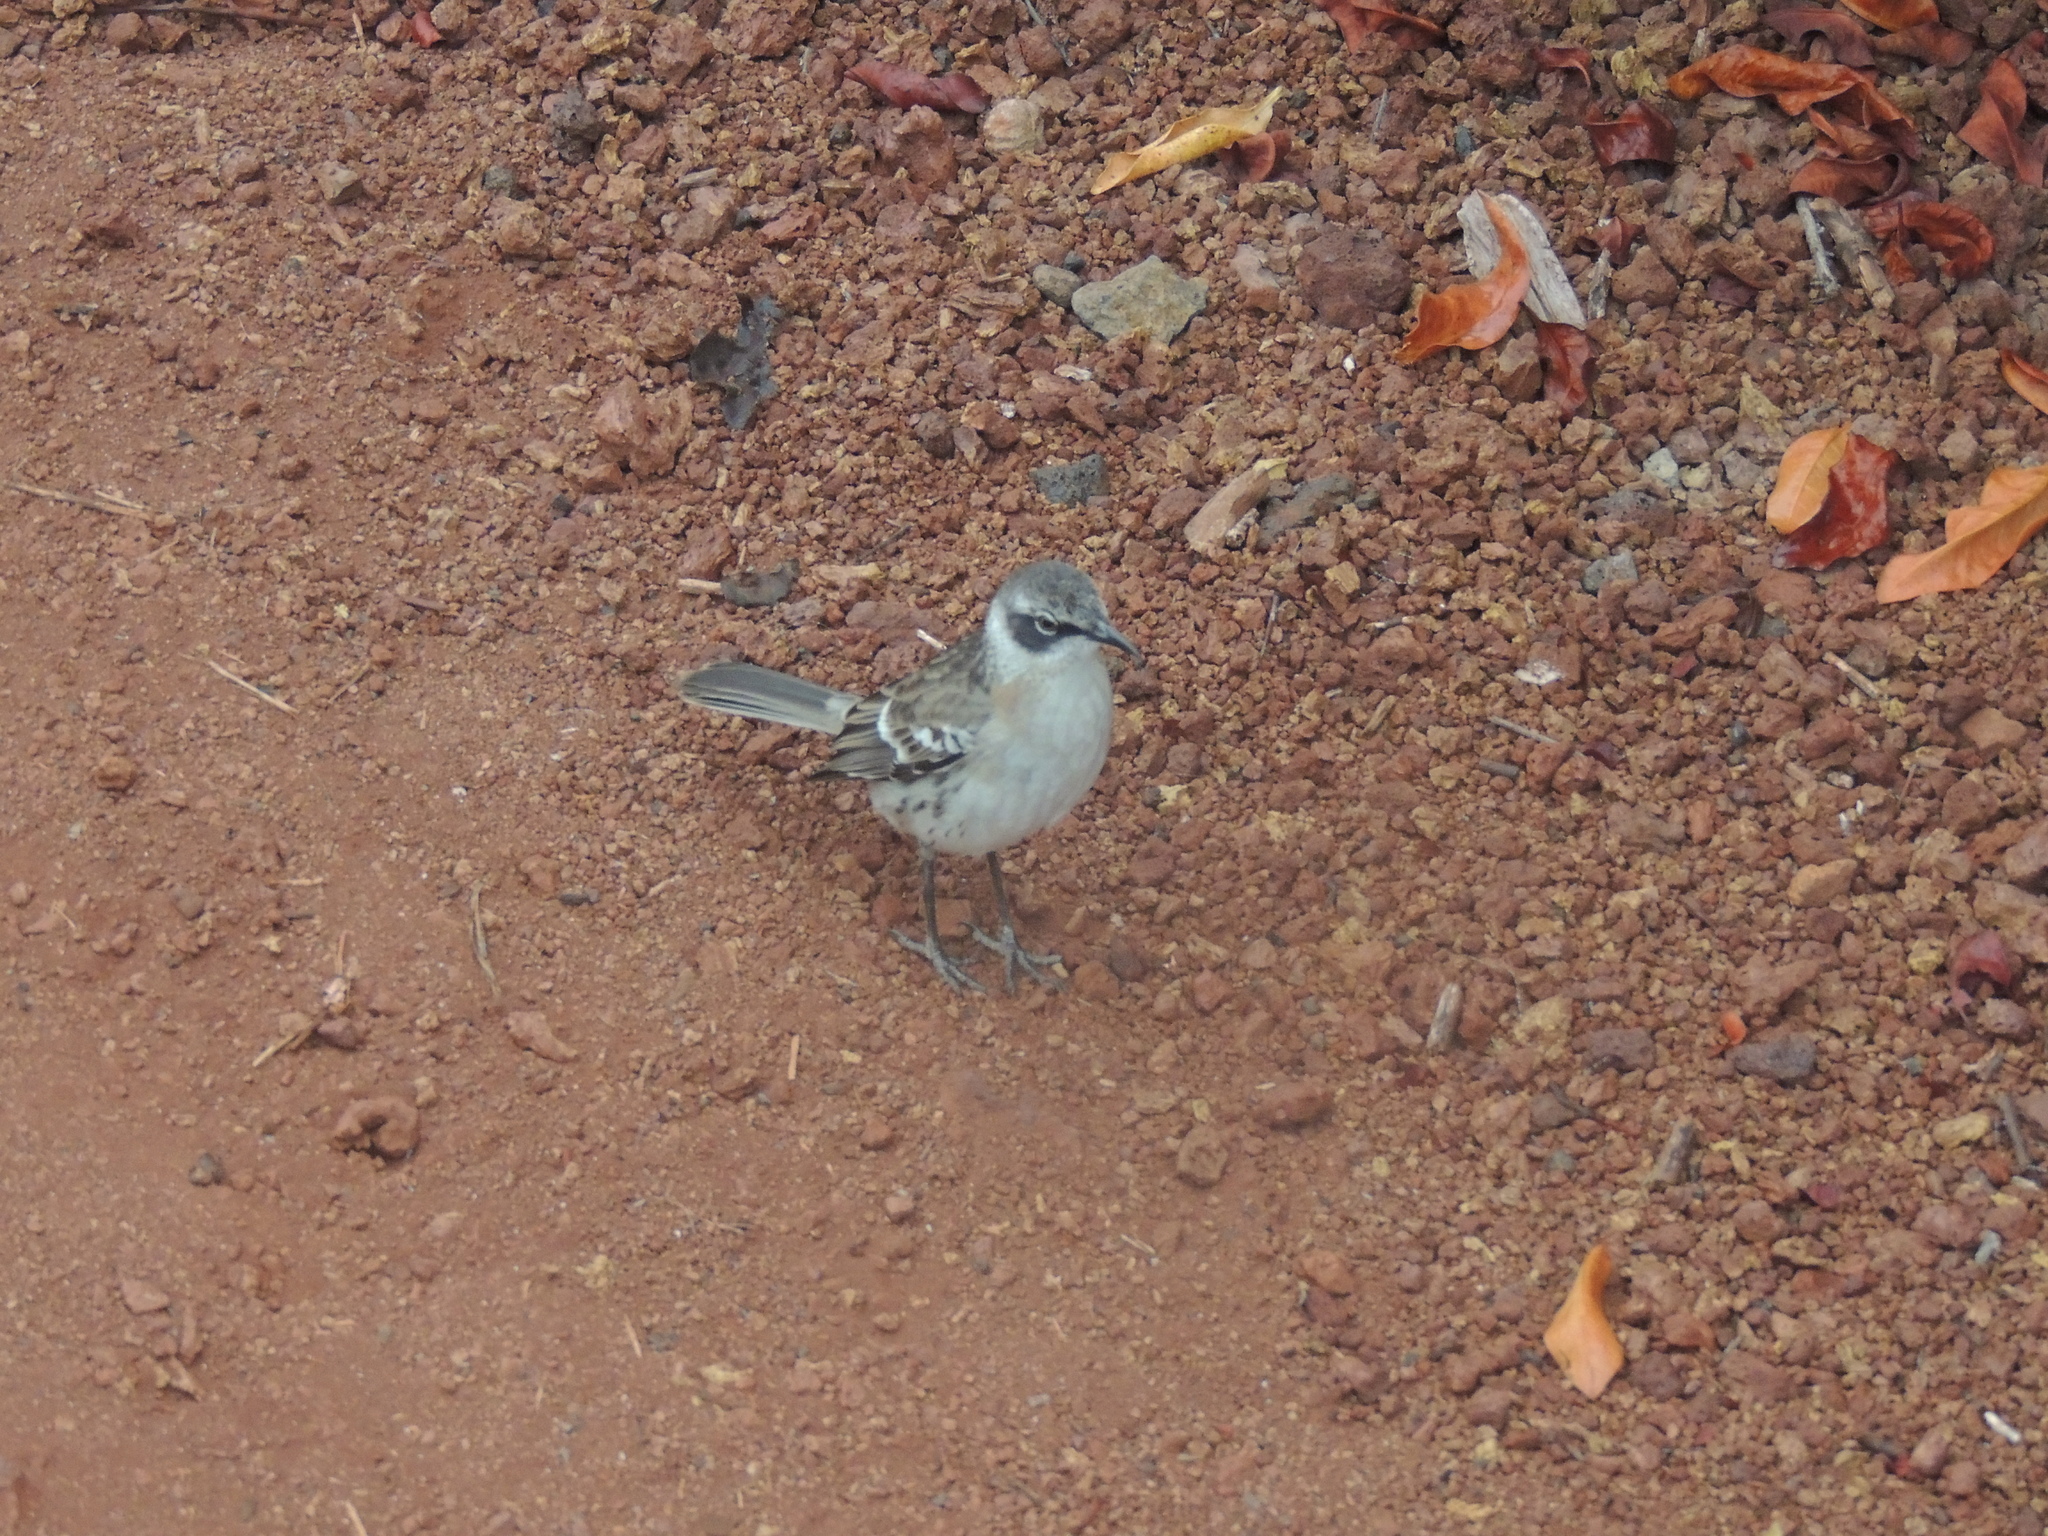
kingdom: Animalia
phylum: Chordata
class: Aves
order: Passeriformes
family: Mimidae
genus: Mimus
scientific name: Mimus parvulus
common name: Galapagos mockingbird
